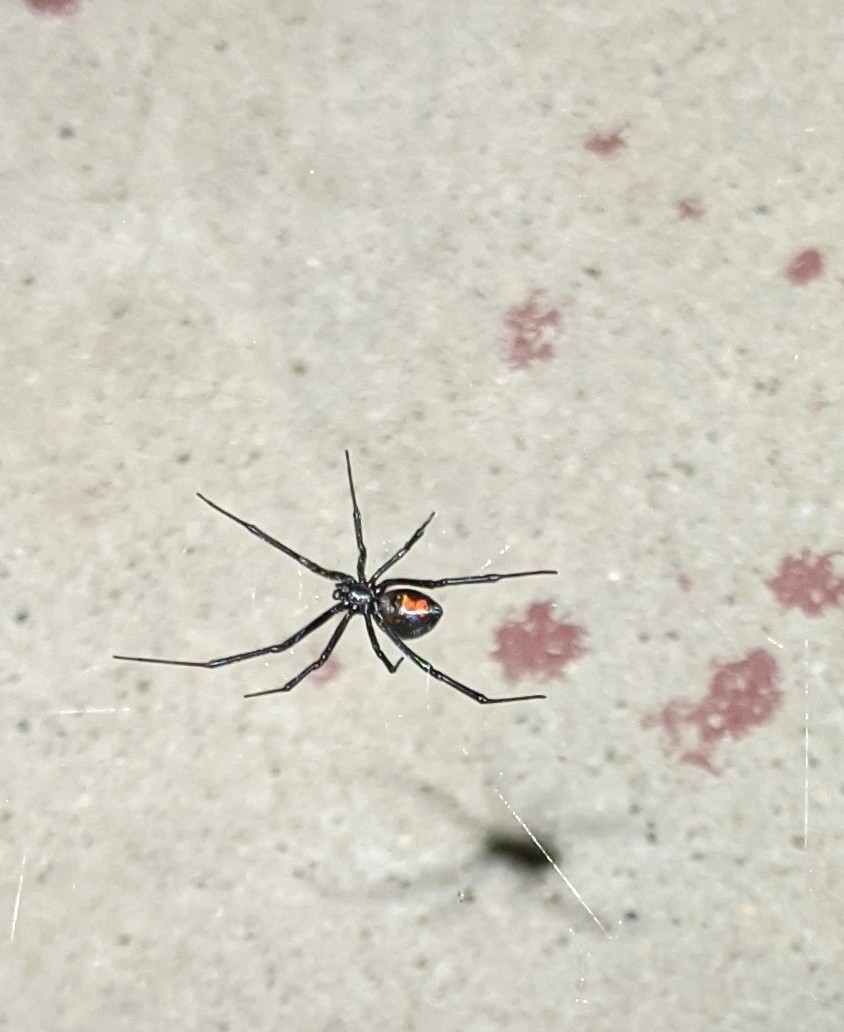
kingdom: Animalia
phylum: Arthropoda
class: Arachnida
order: Araneae
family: Theridiidae
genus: Latrodectus
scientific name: Latrodectus hesperus
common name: Western black widow
